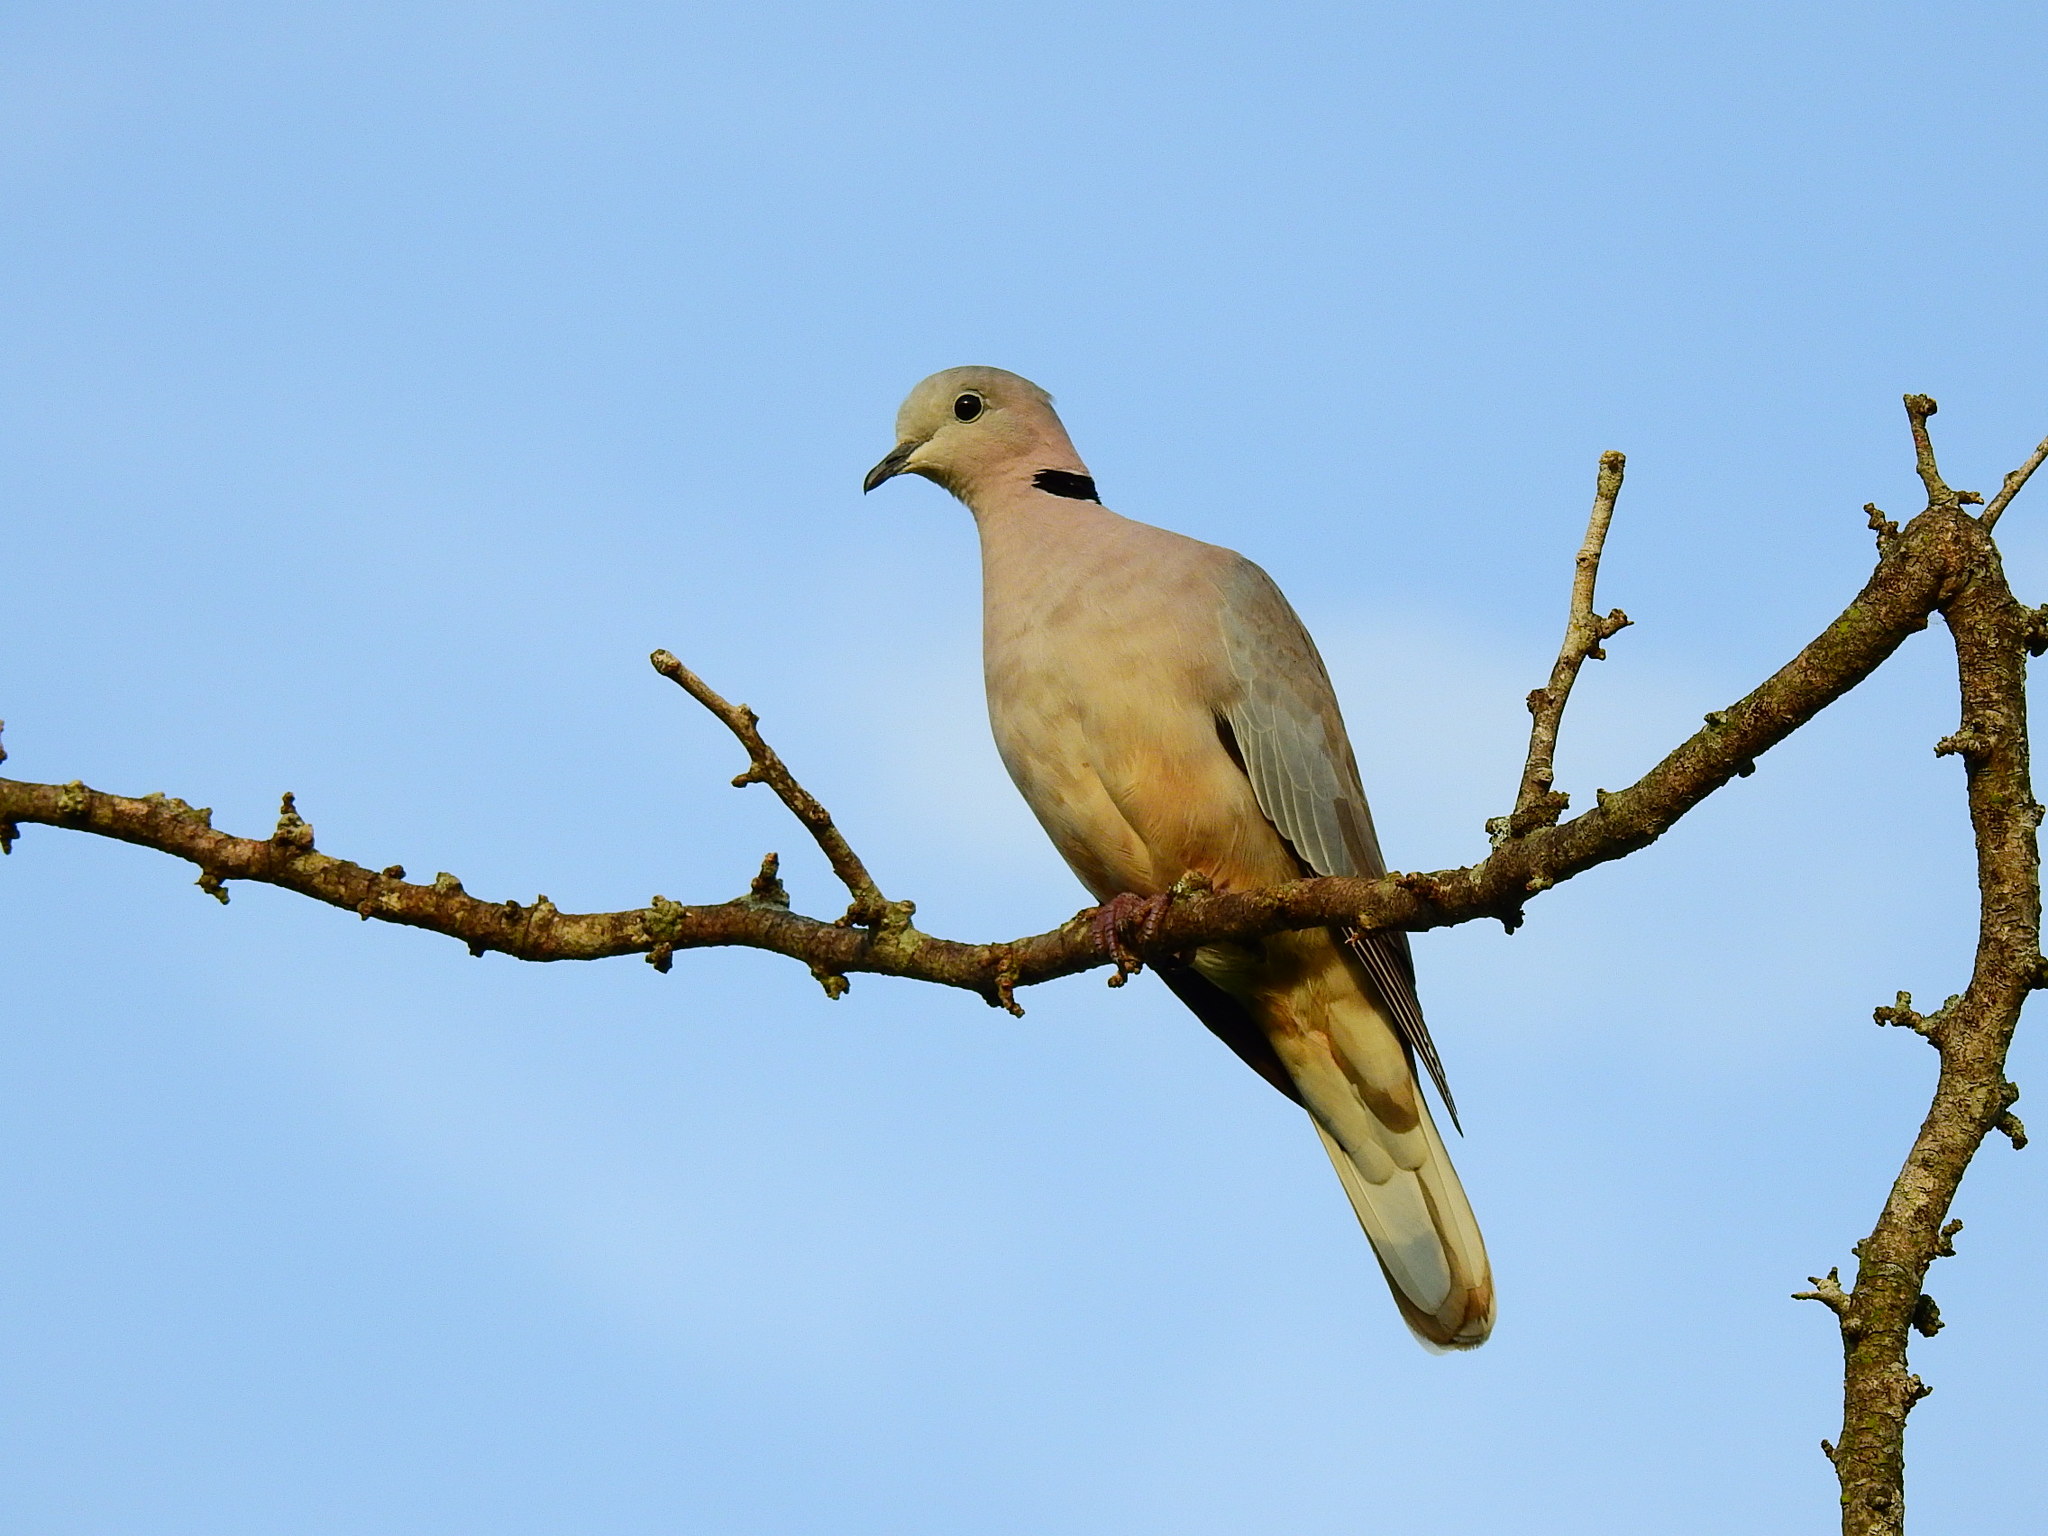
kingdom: Animalia
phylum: Chordata
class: Aves
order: Columbiformes
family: Columbidae
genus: Streptopelia
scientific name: Streptopelia capicola
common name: Ring-necked dove
